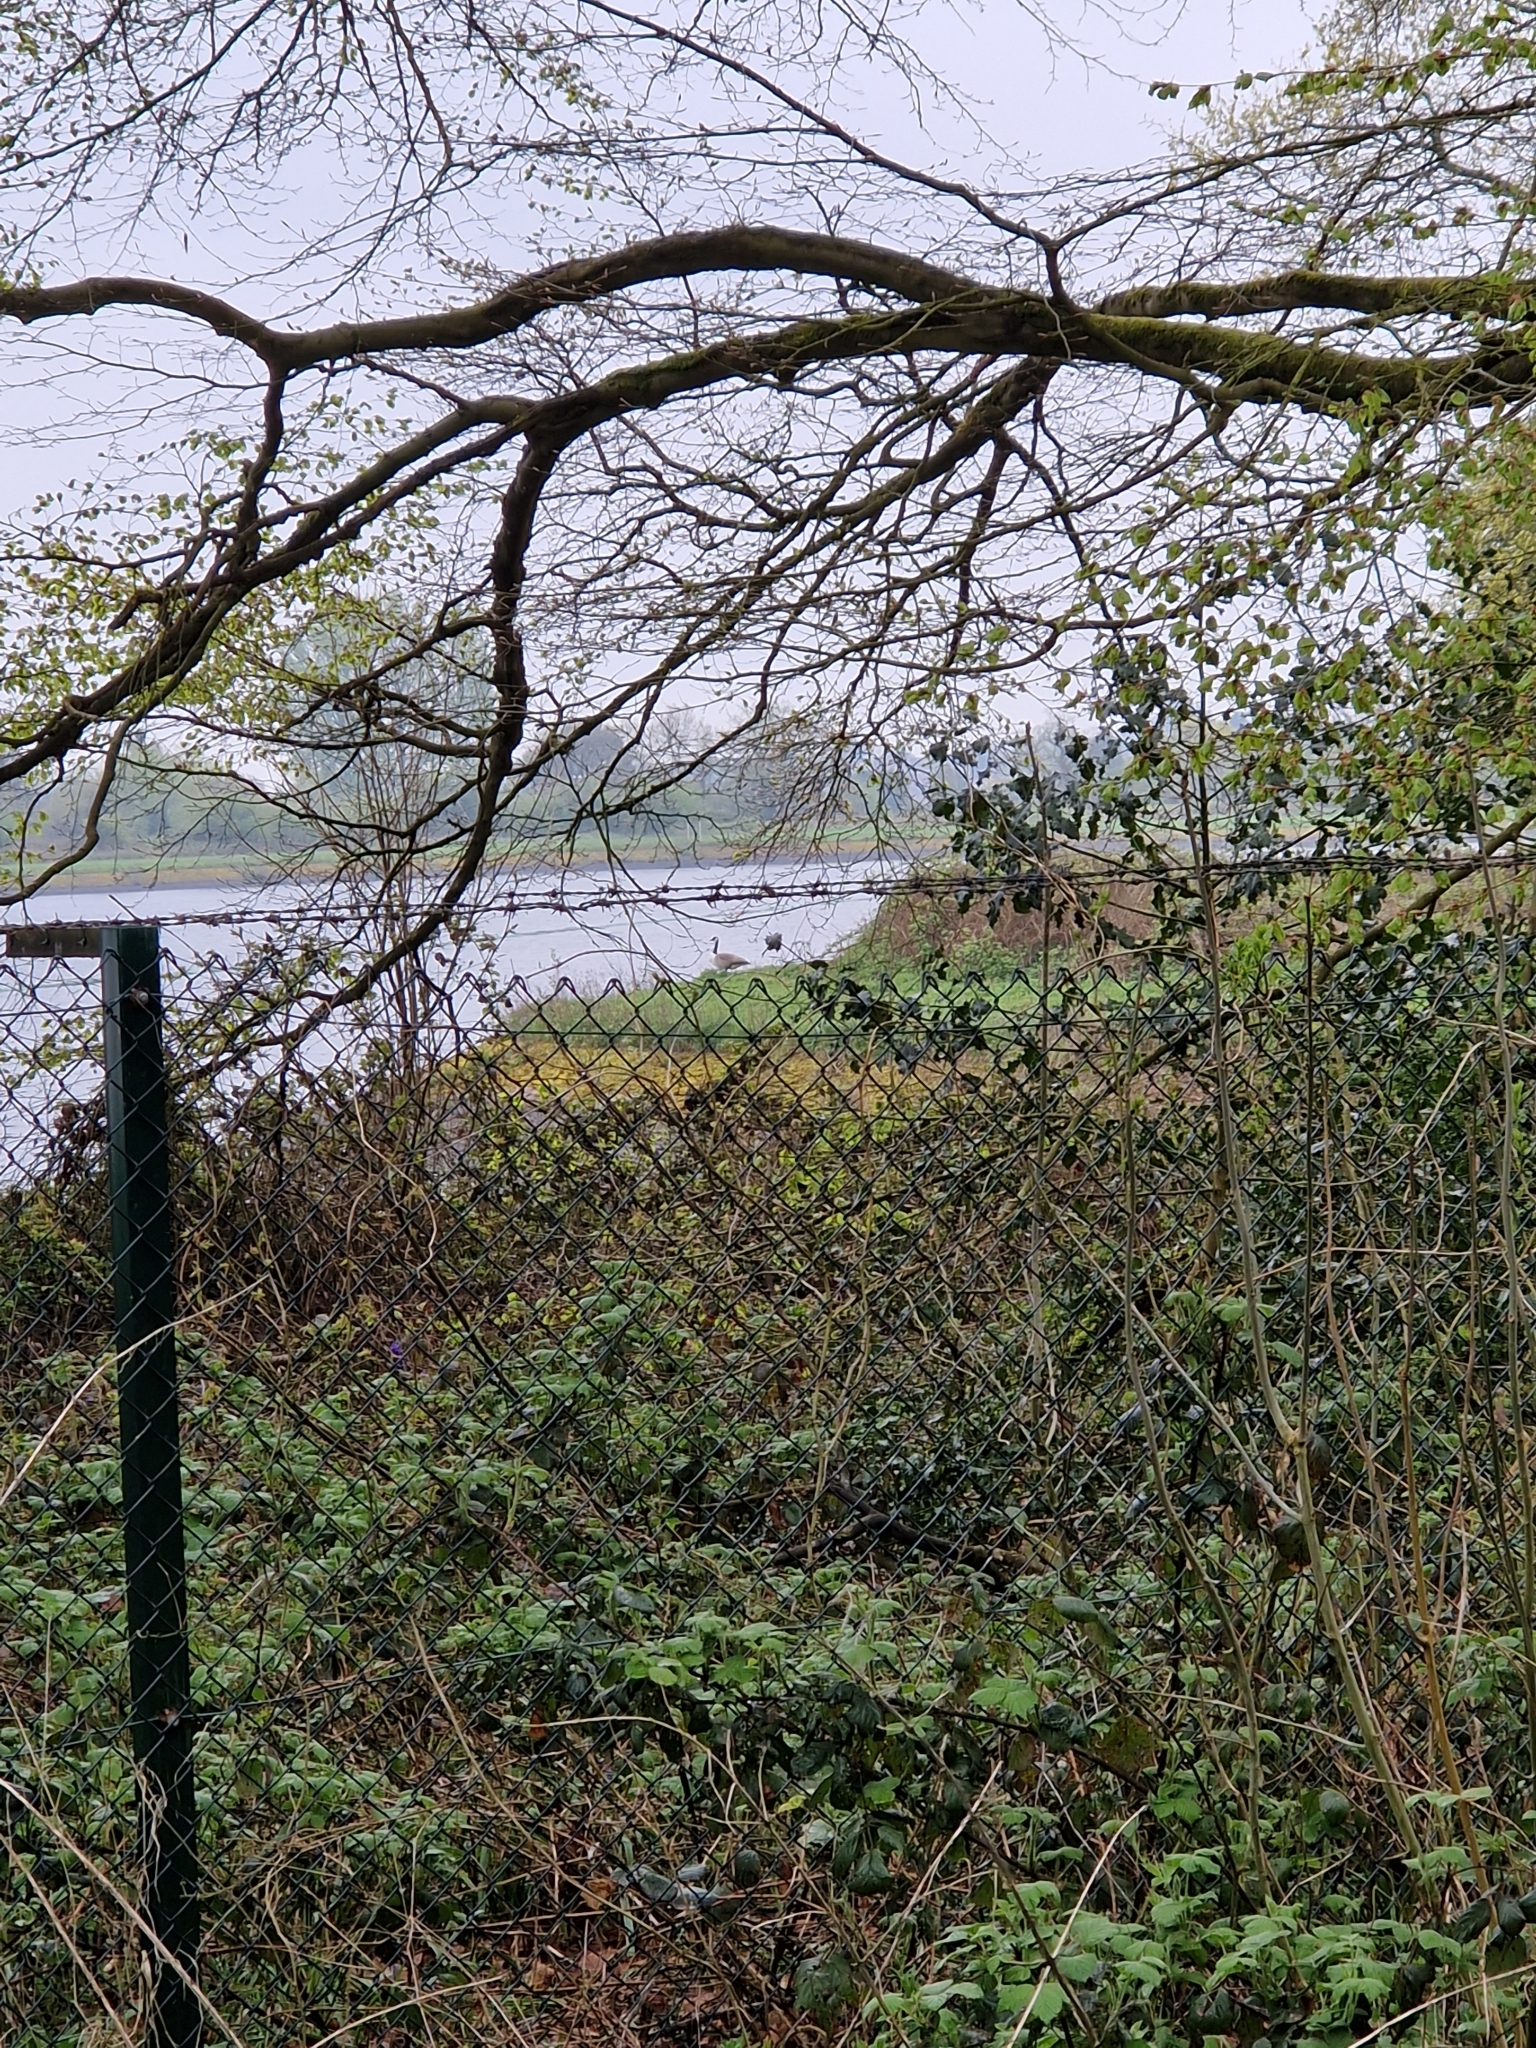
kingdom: Animalia
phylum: Chordata
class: Aves
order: Anseriformes
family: Anatidae
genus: Branta
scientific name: Branta canadensis
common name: Canada goose
